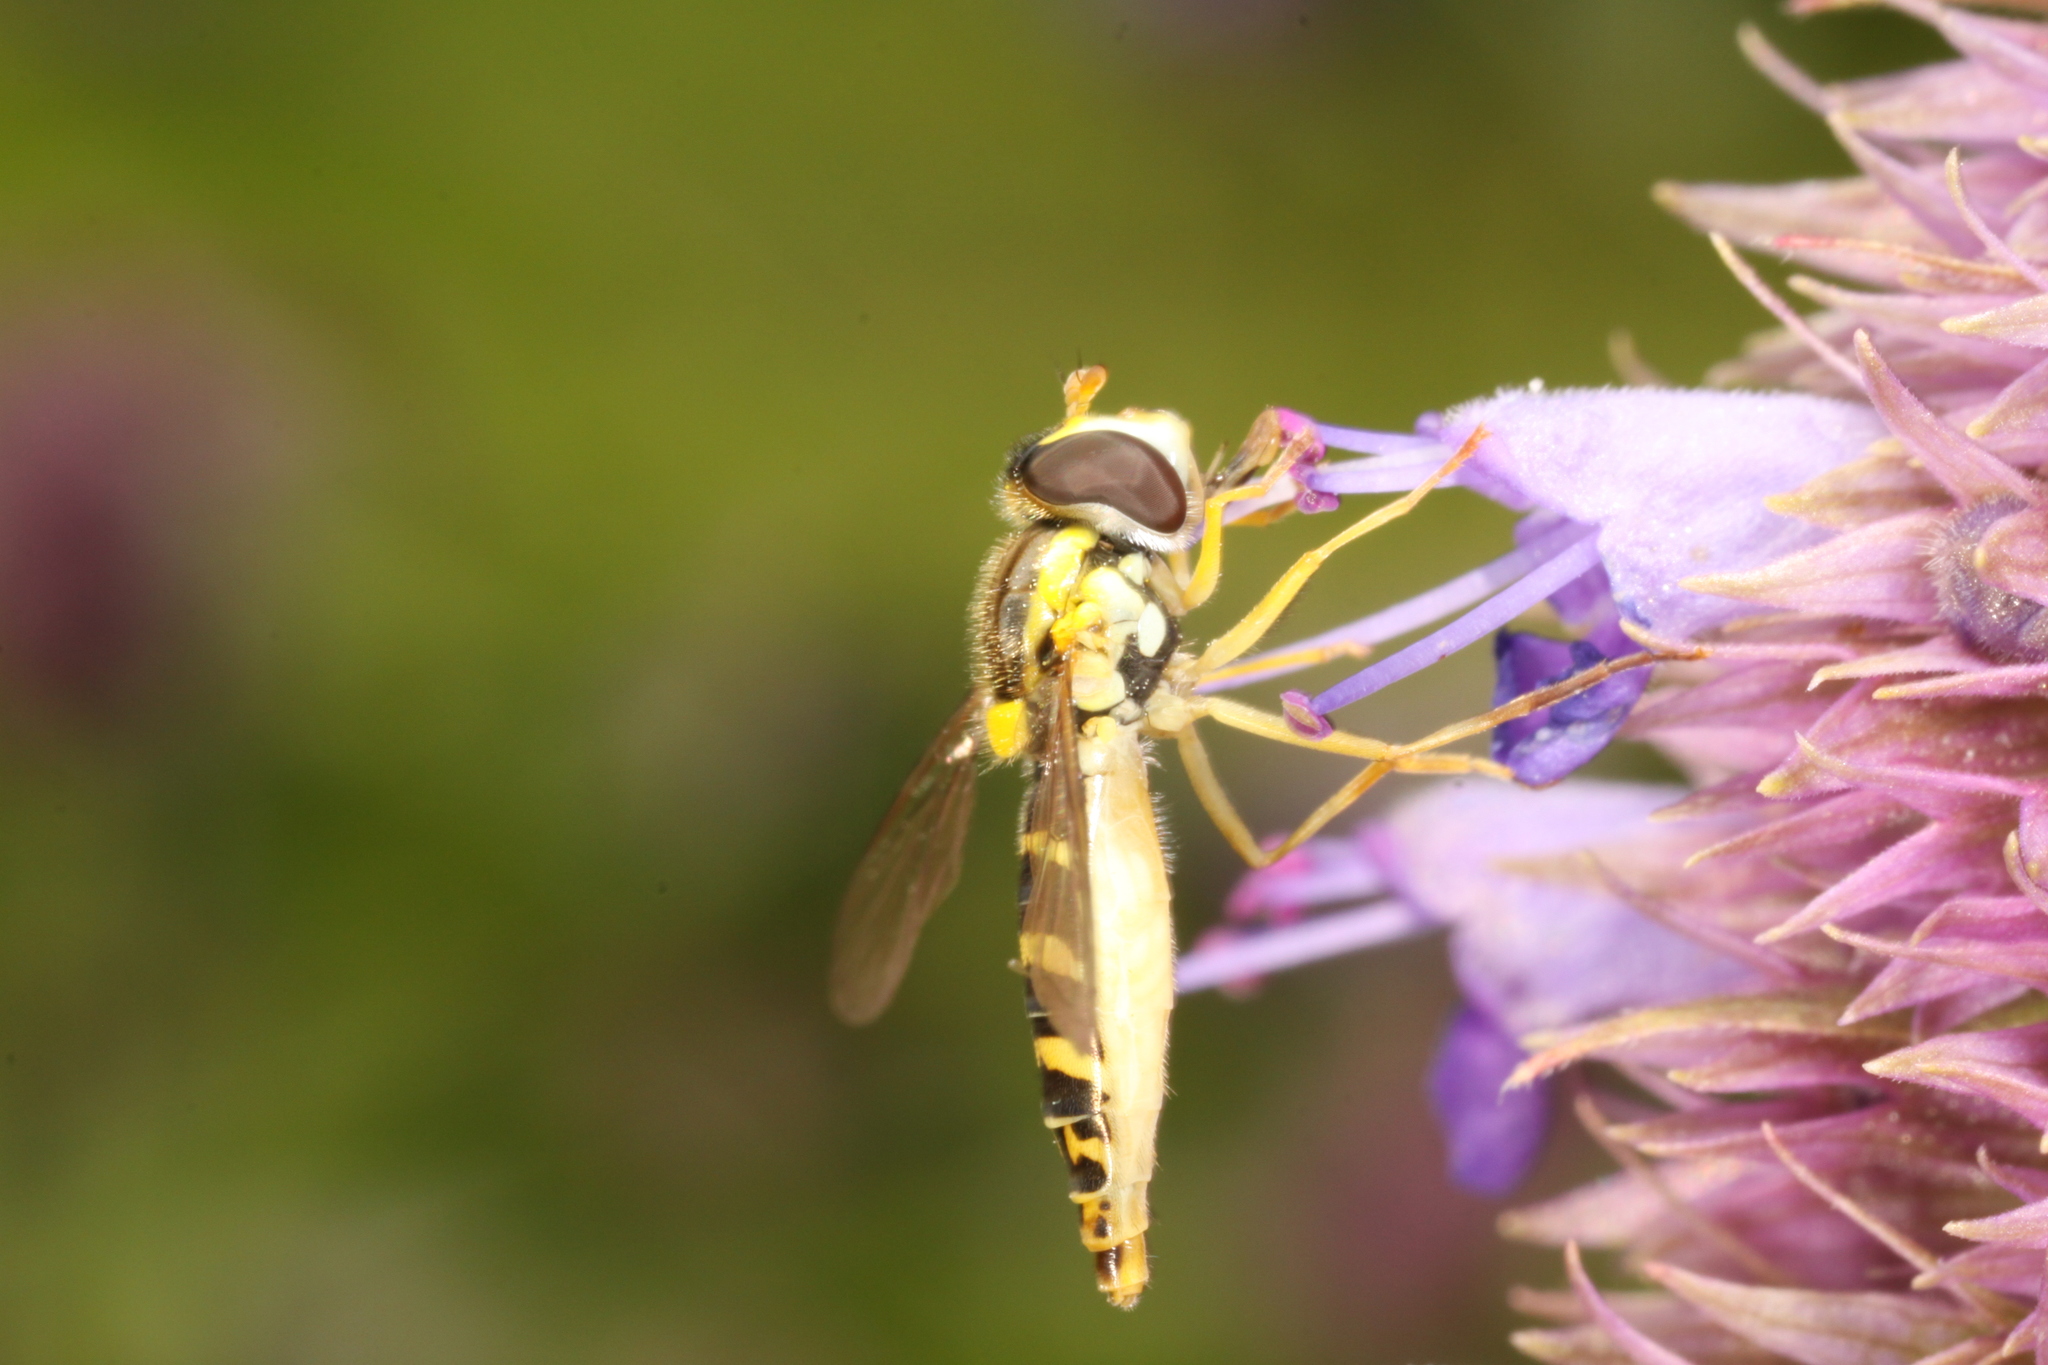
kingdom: Animalia
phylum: Arthropoda
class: Insecta
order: Diptera
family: Syrphidae
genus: Sphaerophoria
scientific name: Sphaerophoria
